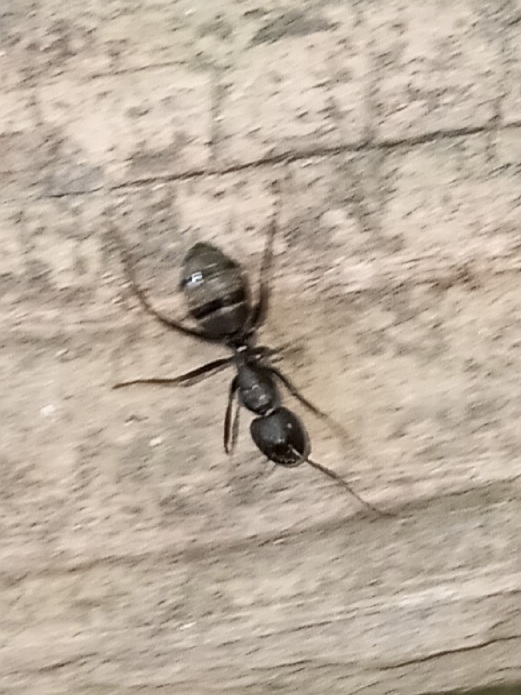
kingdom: Animalia
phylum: Arthropoda
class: Insecta
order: Hymenoptera
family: Formicidae
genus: Camponotus
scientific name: Camponotus pennsylvanicus
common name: Black carpenter ant
